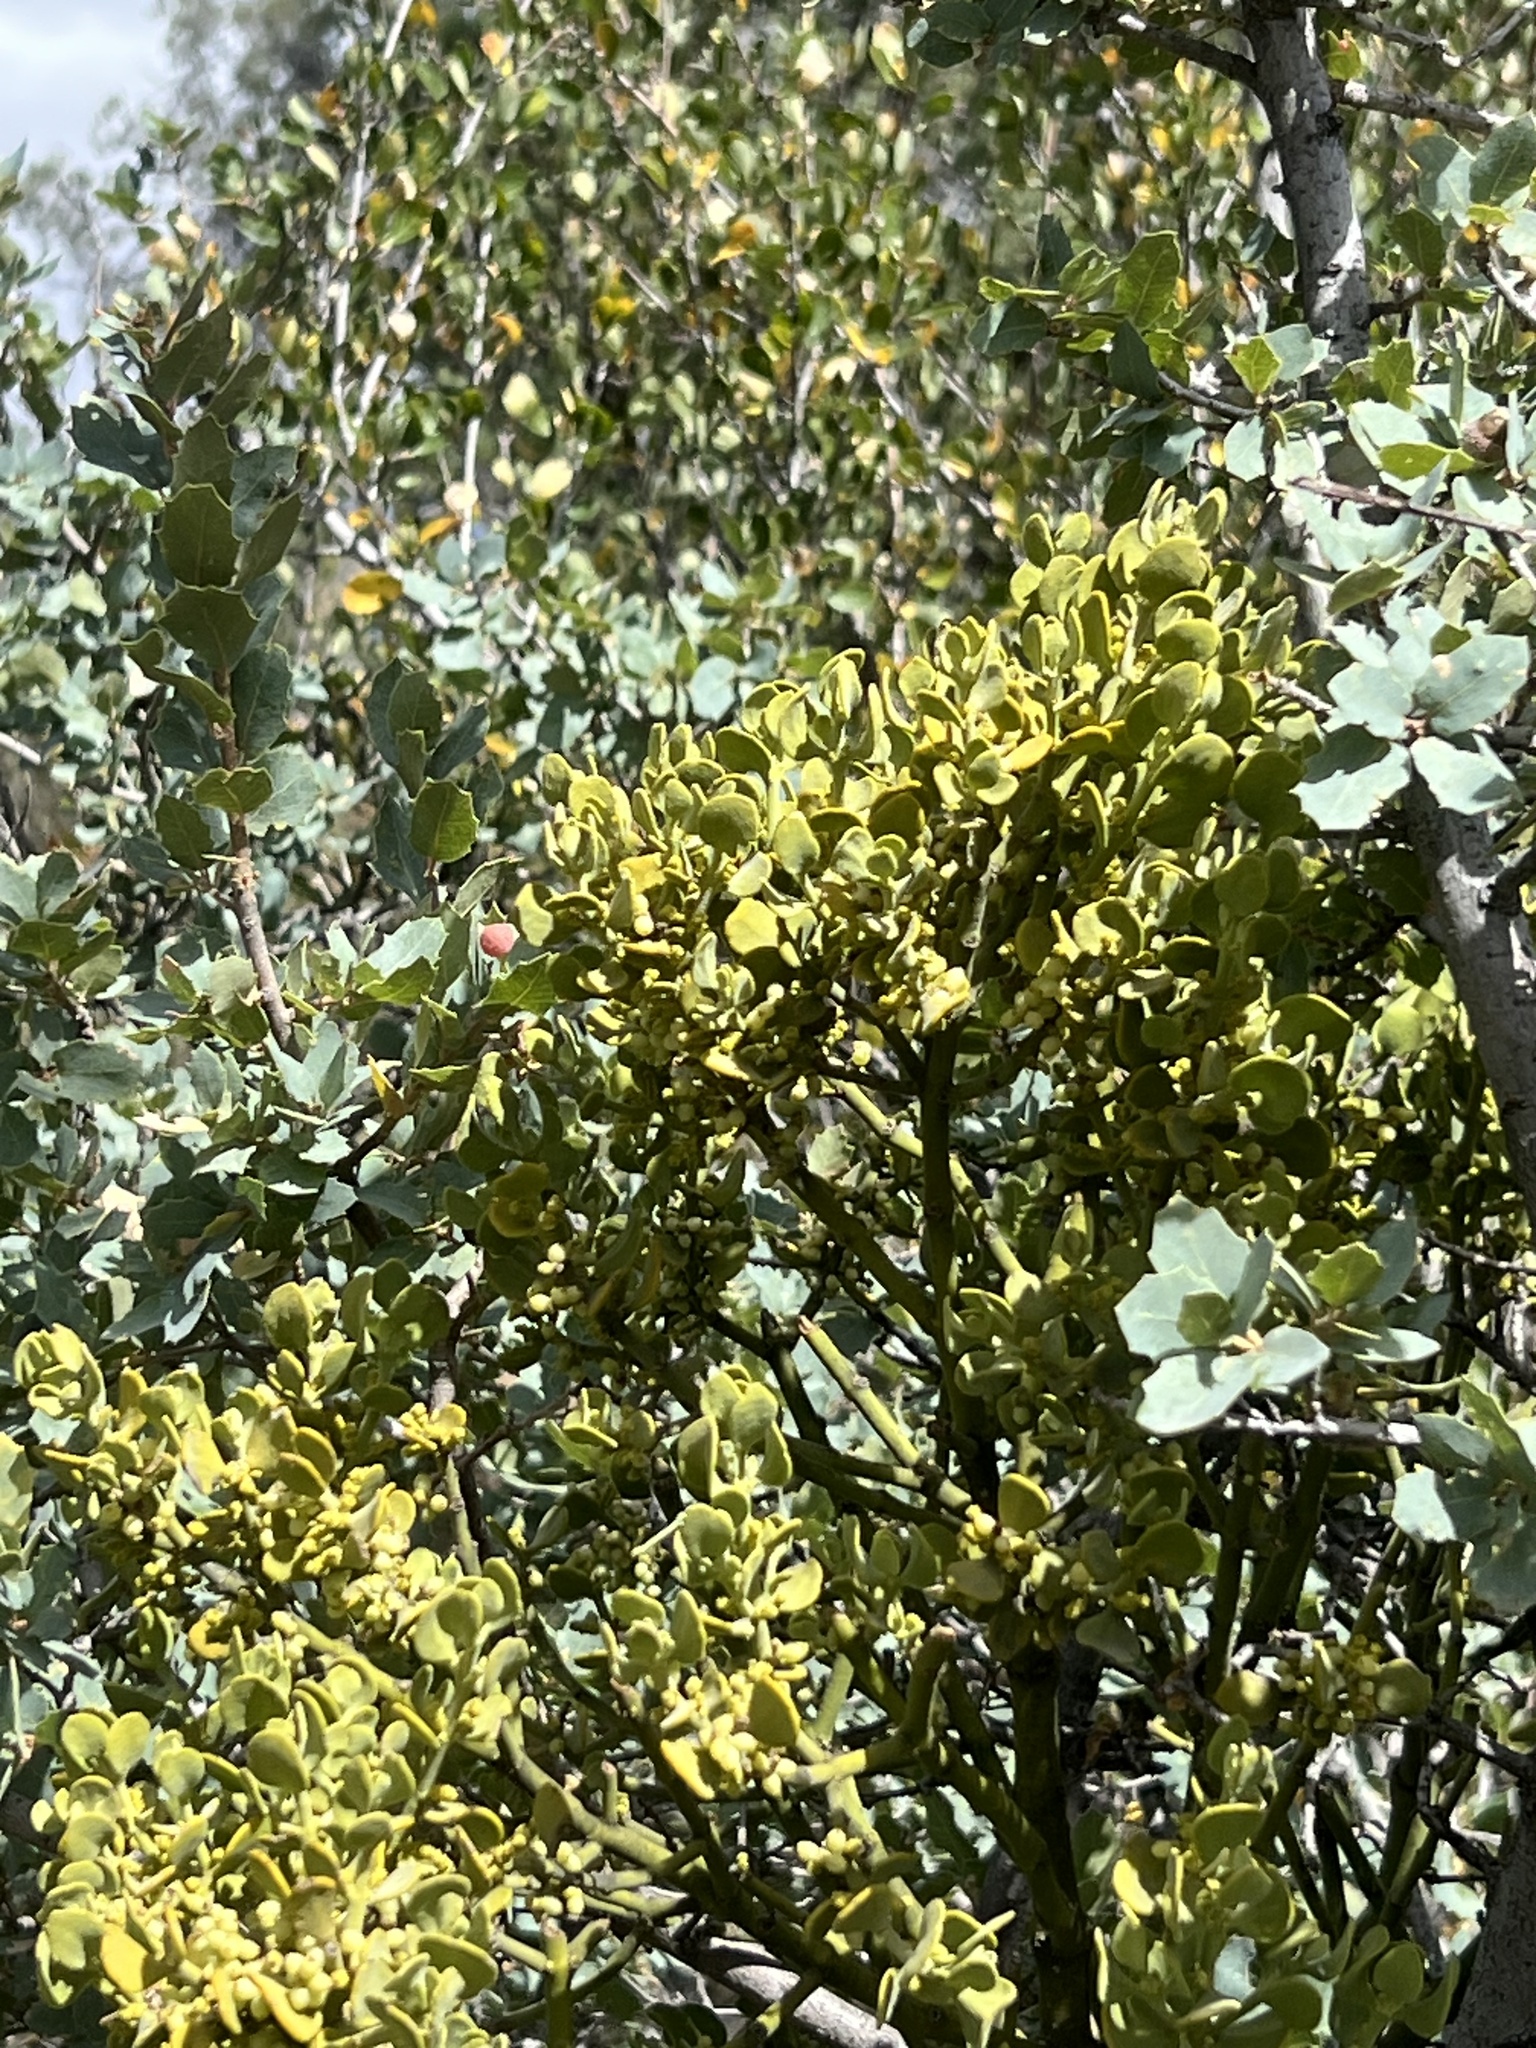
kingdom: Plantae
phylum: Tracheophyta
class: Magnoliopsida
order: Santalales
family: Viscaceae
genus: Phoradendron
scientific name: Phoradendron coryae
